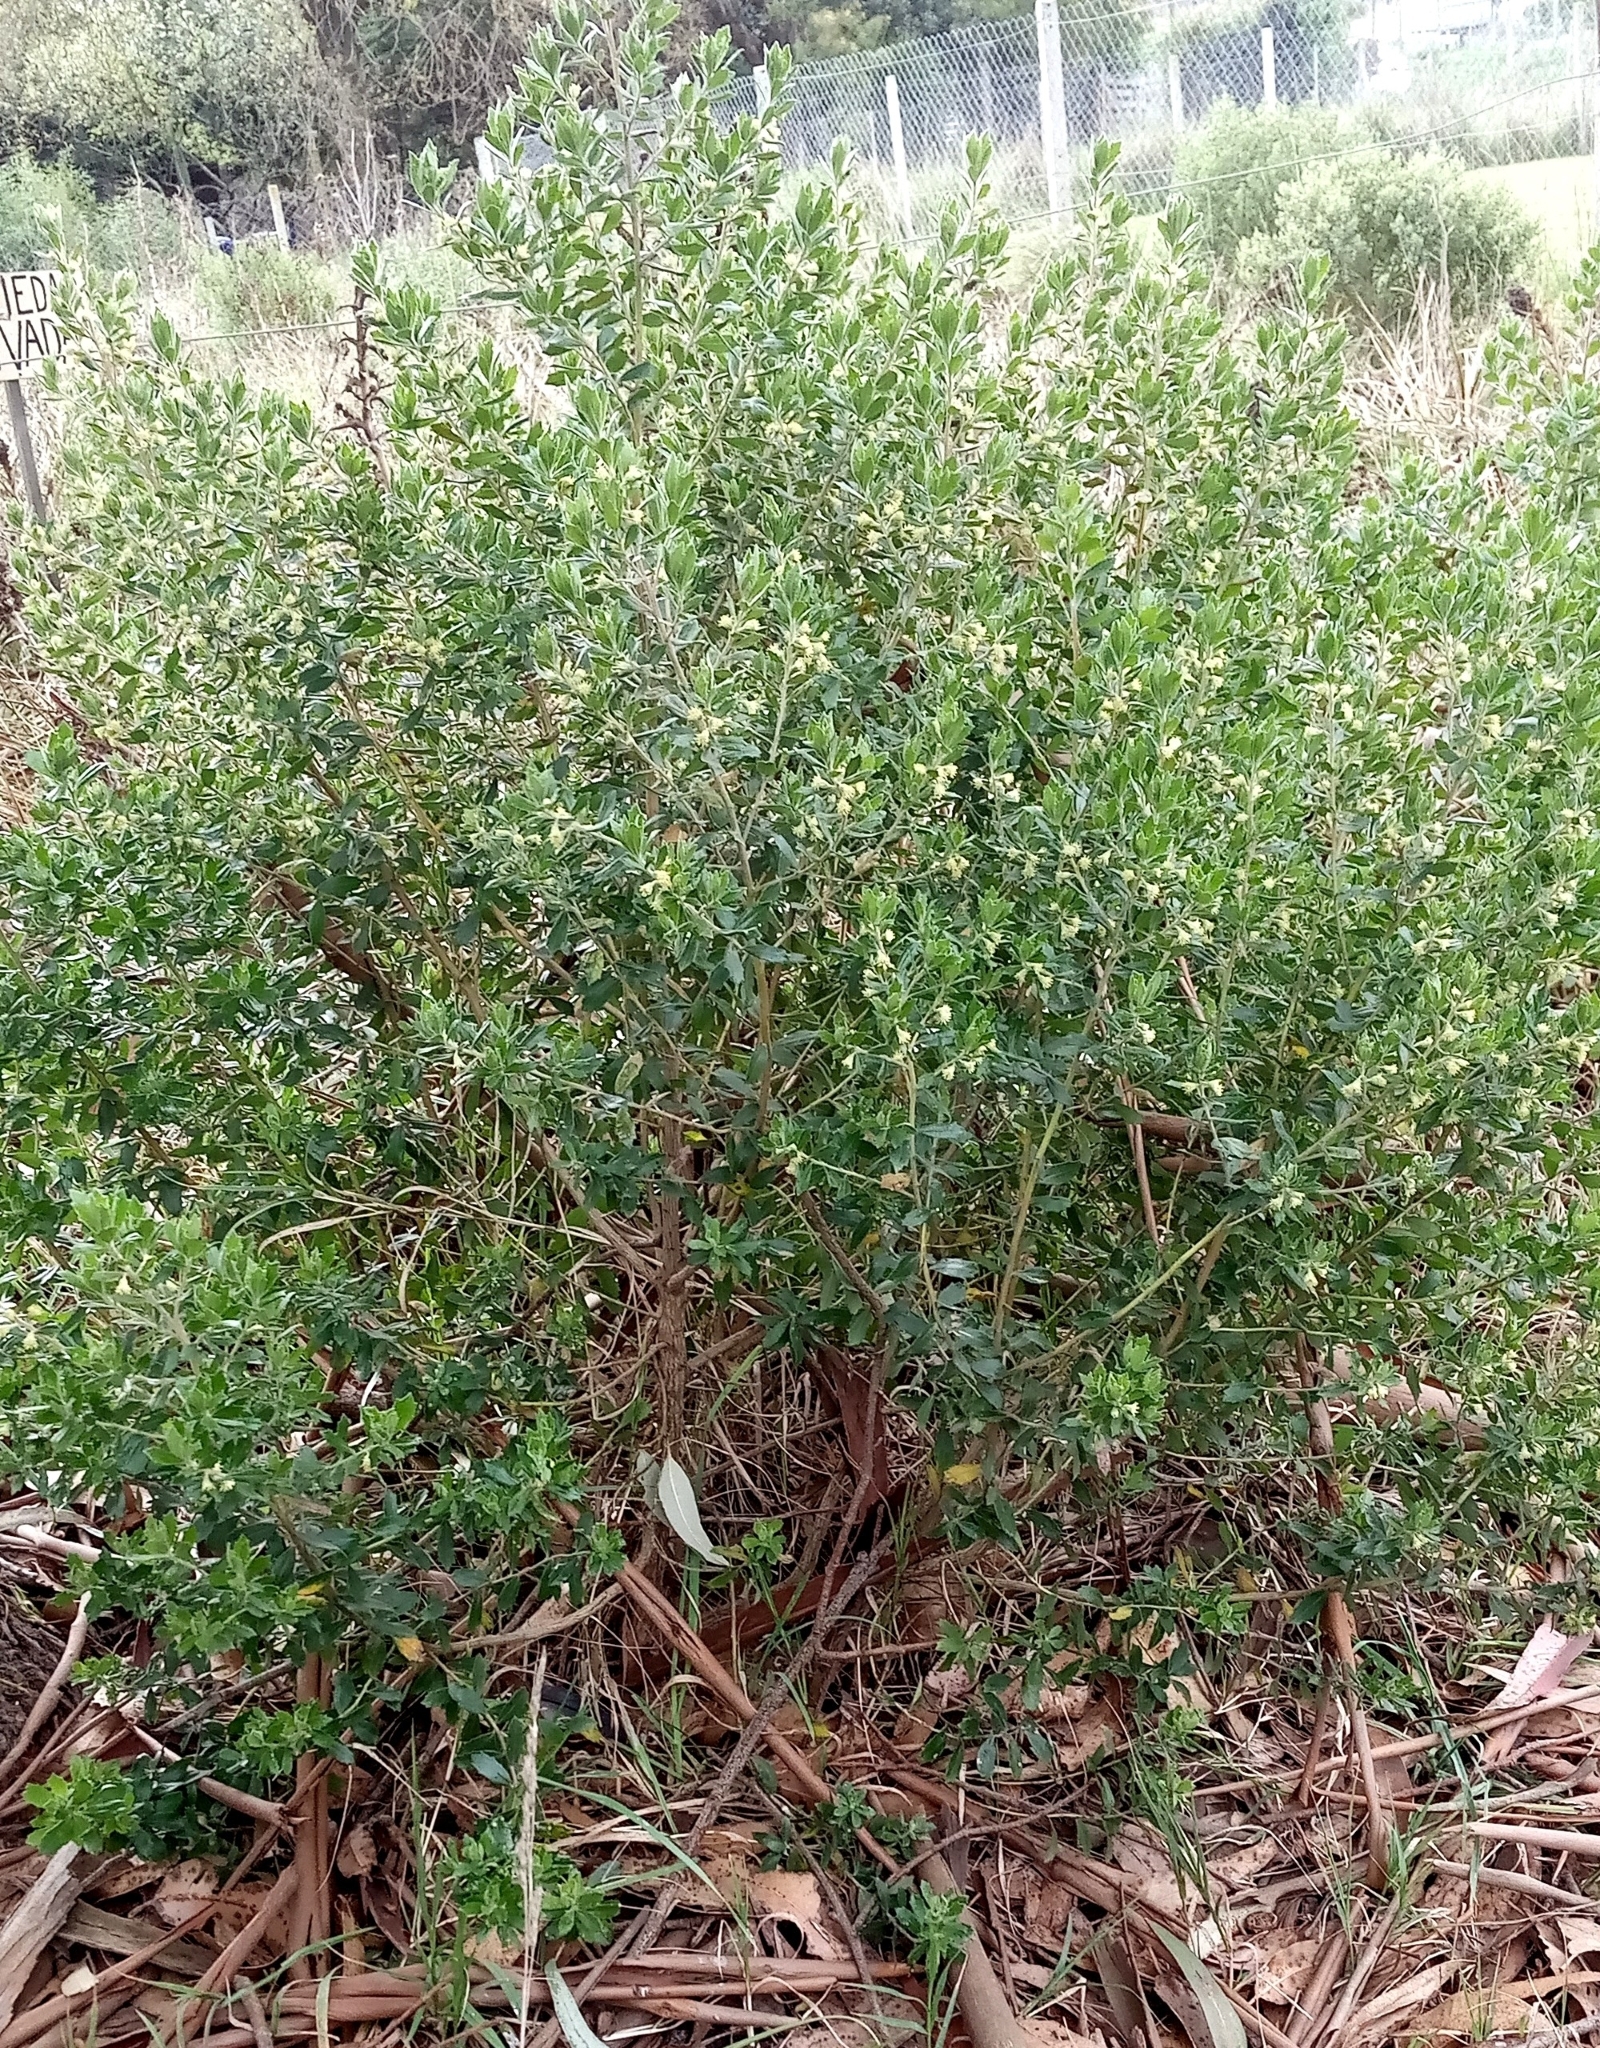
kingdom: Plantae
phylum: Tracheophyta
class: Magnoliopsida
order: Asterales
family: Asteraceae
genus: Baccharis
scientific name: Baccharis dracunculifolia
